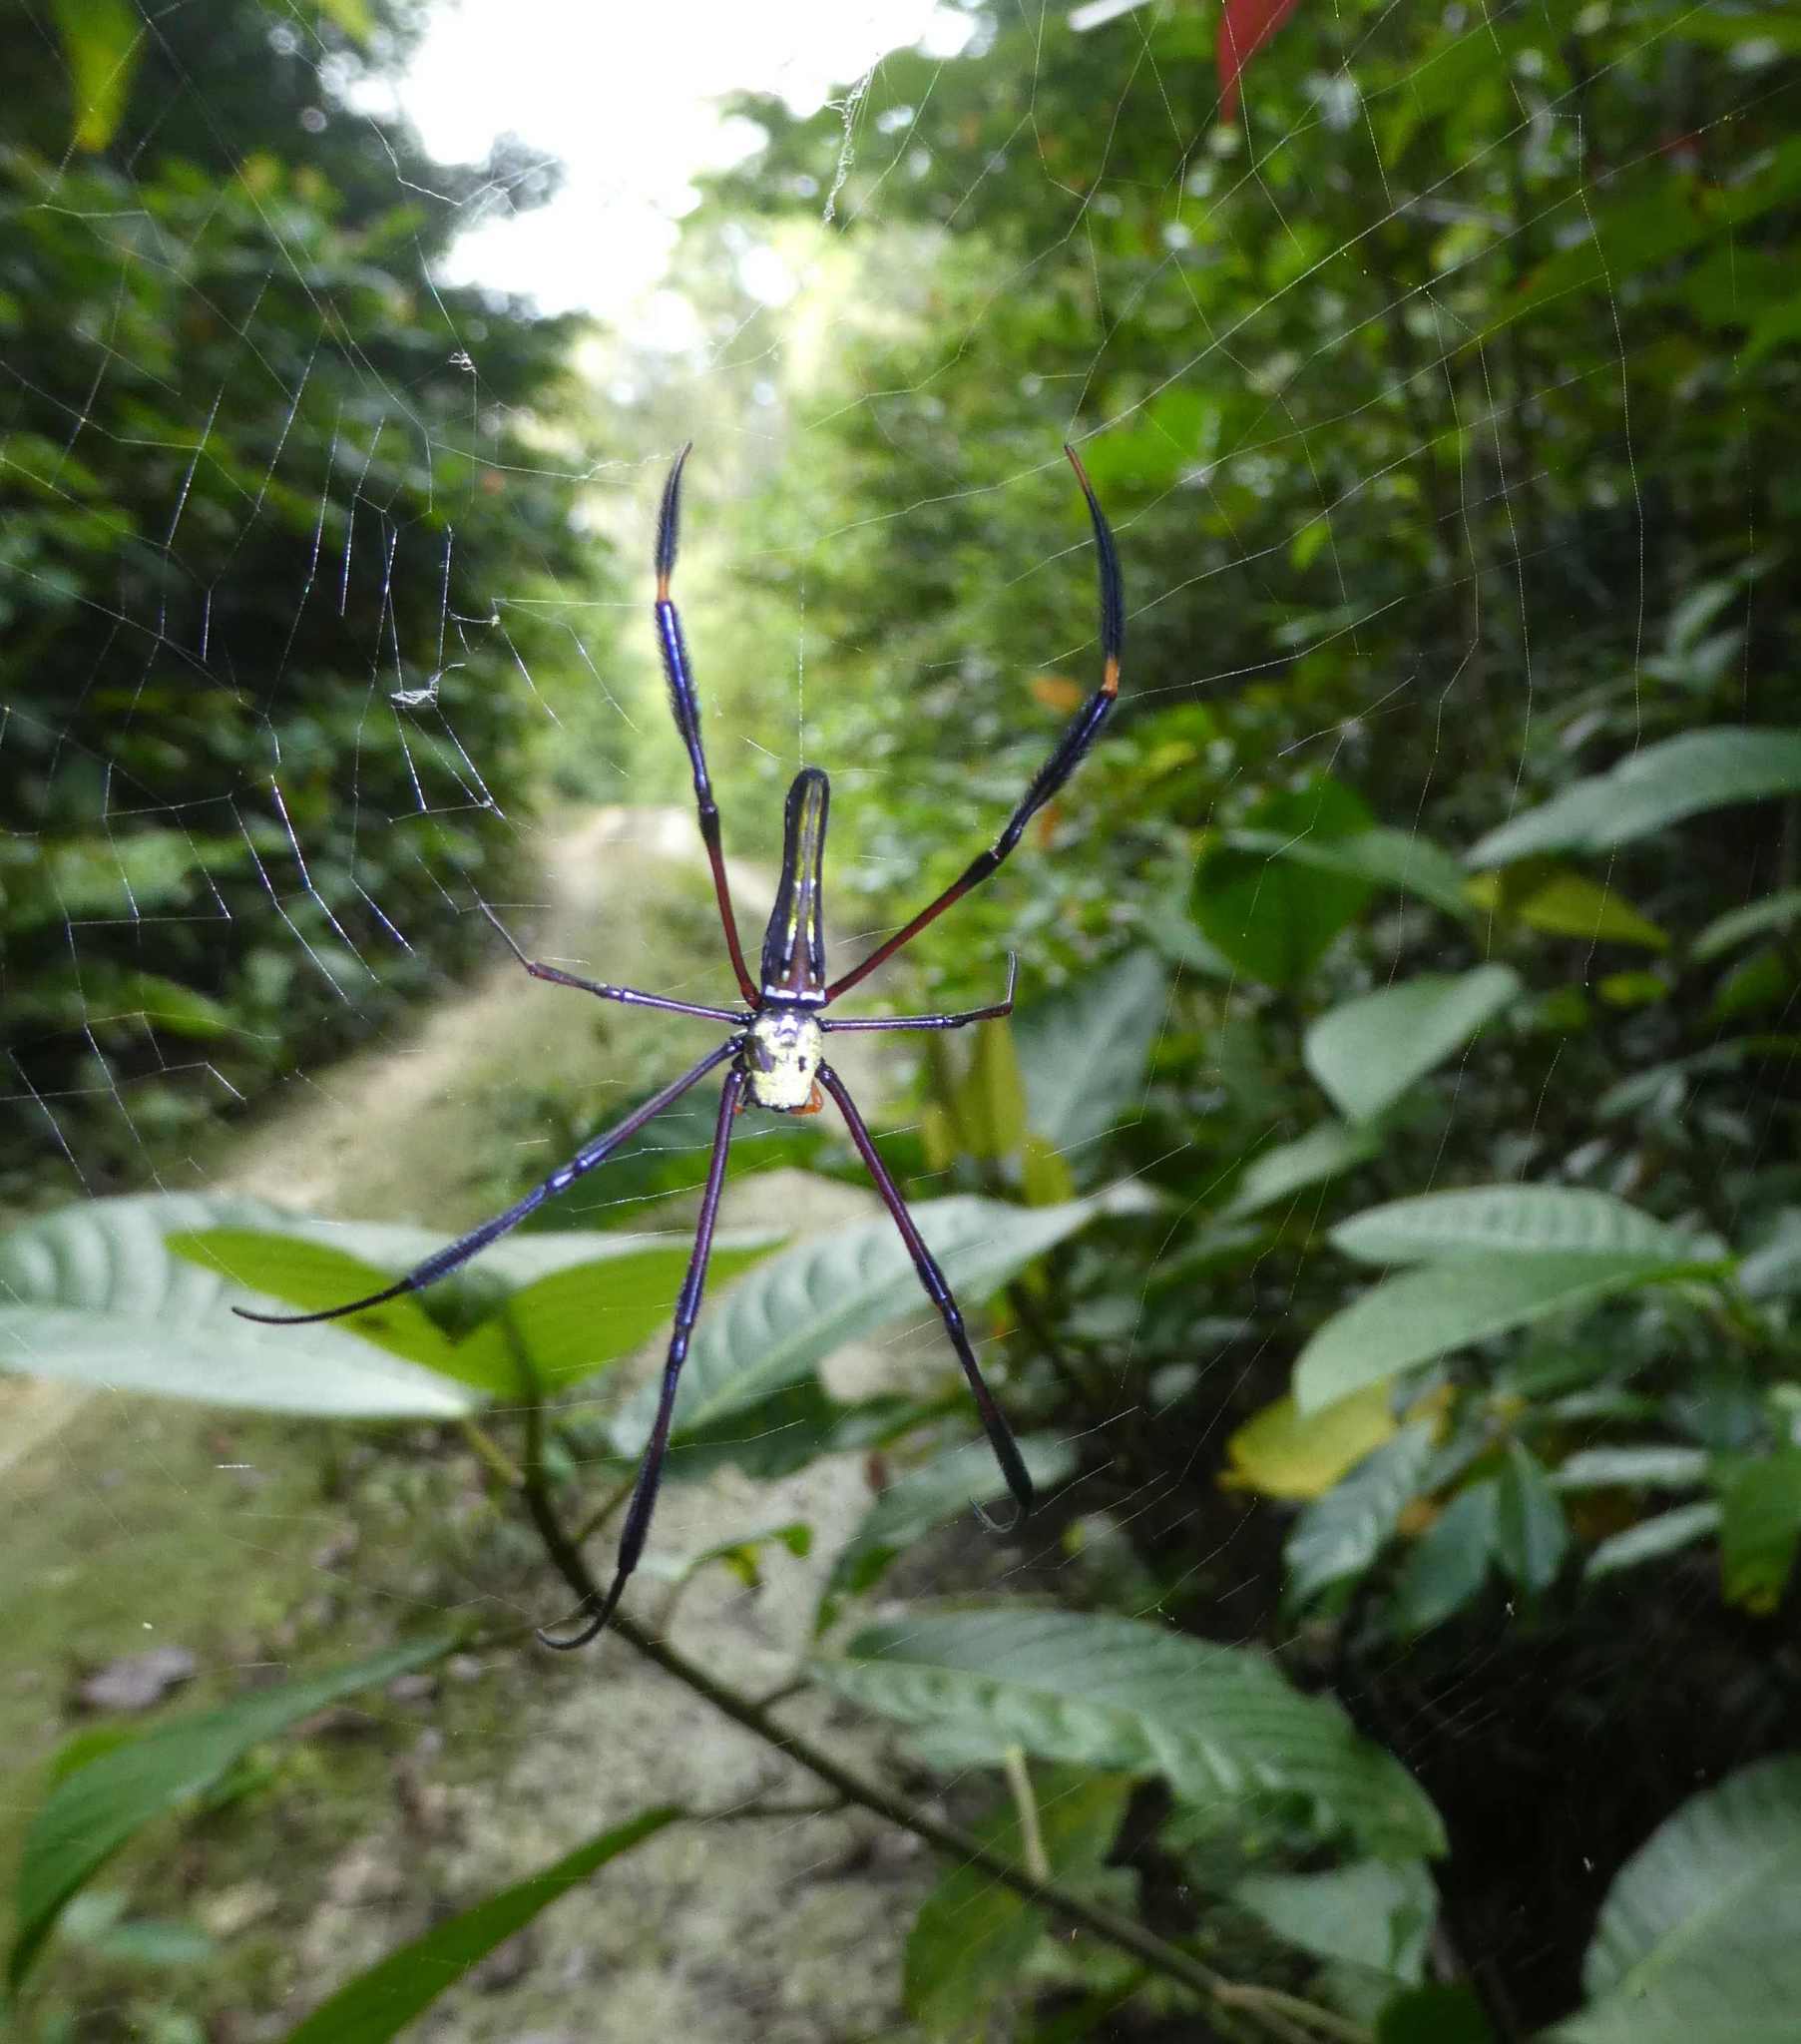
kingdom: Animalia
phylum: Arthropoda
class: Arachnida
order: Araneae
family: Araneidae
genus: Nephila
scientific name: Nephila pilipes
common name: Giant golden orb weaver
